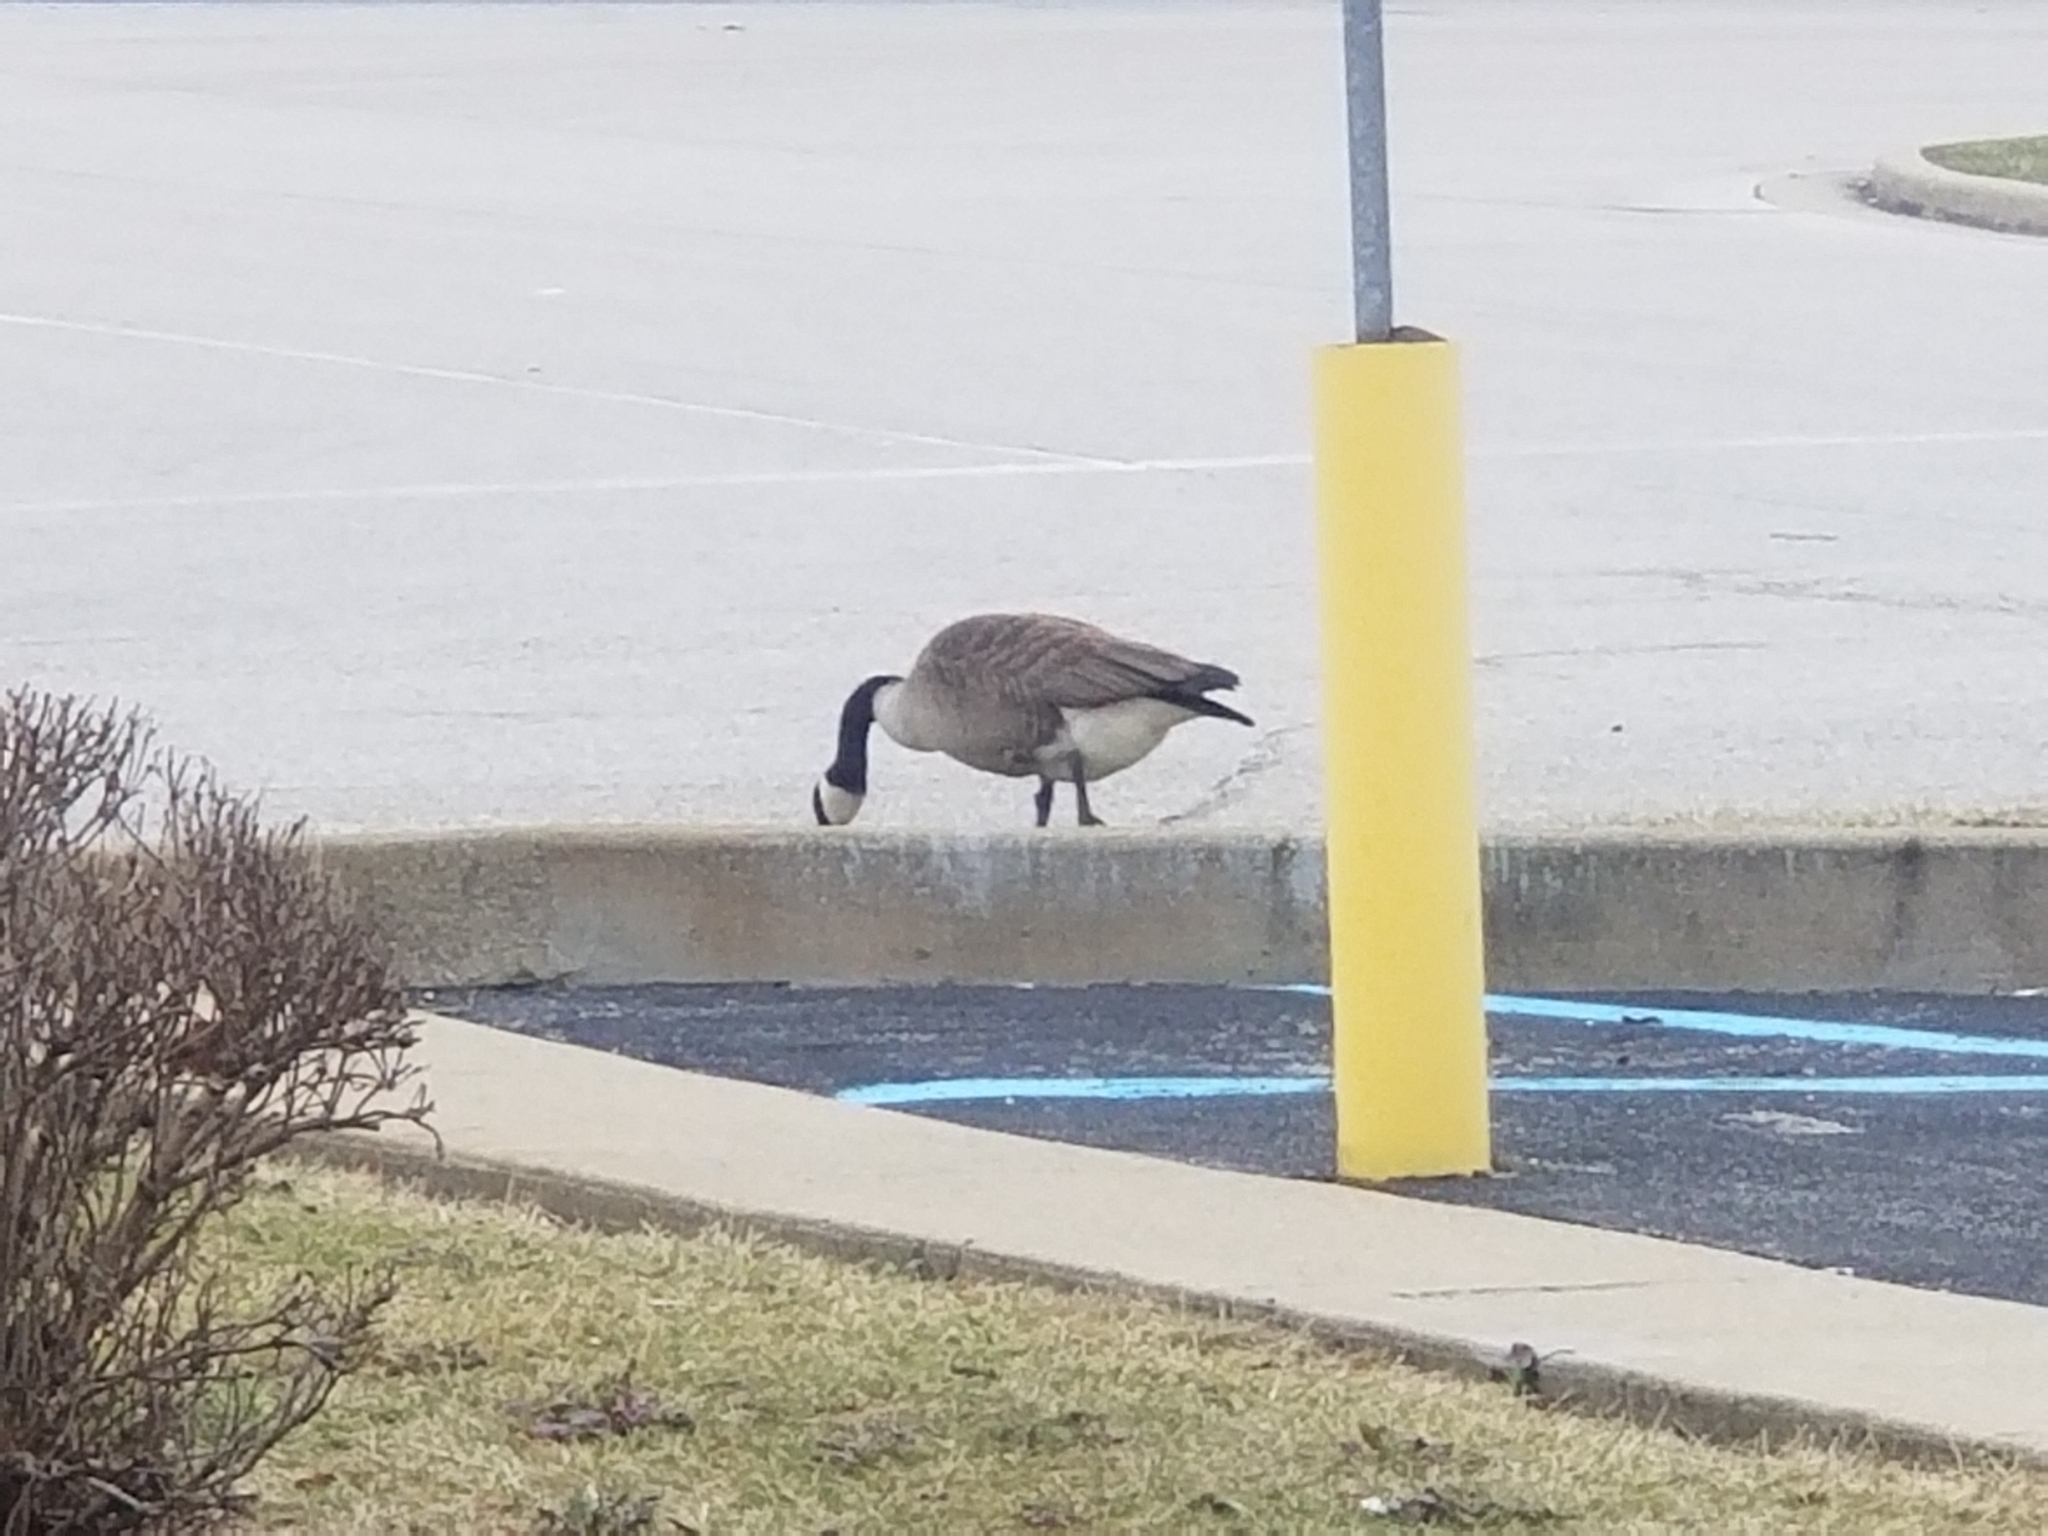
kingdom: Animalia
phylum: Chordata
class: Aves
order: Anseriformes
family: Anatidae
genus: Branta
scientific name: Branta canadensis
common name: Canada goose
